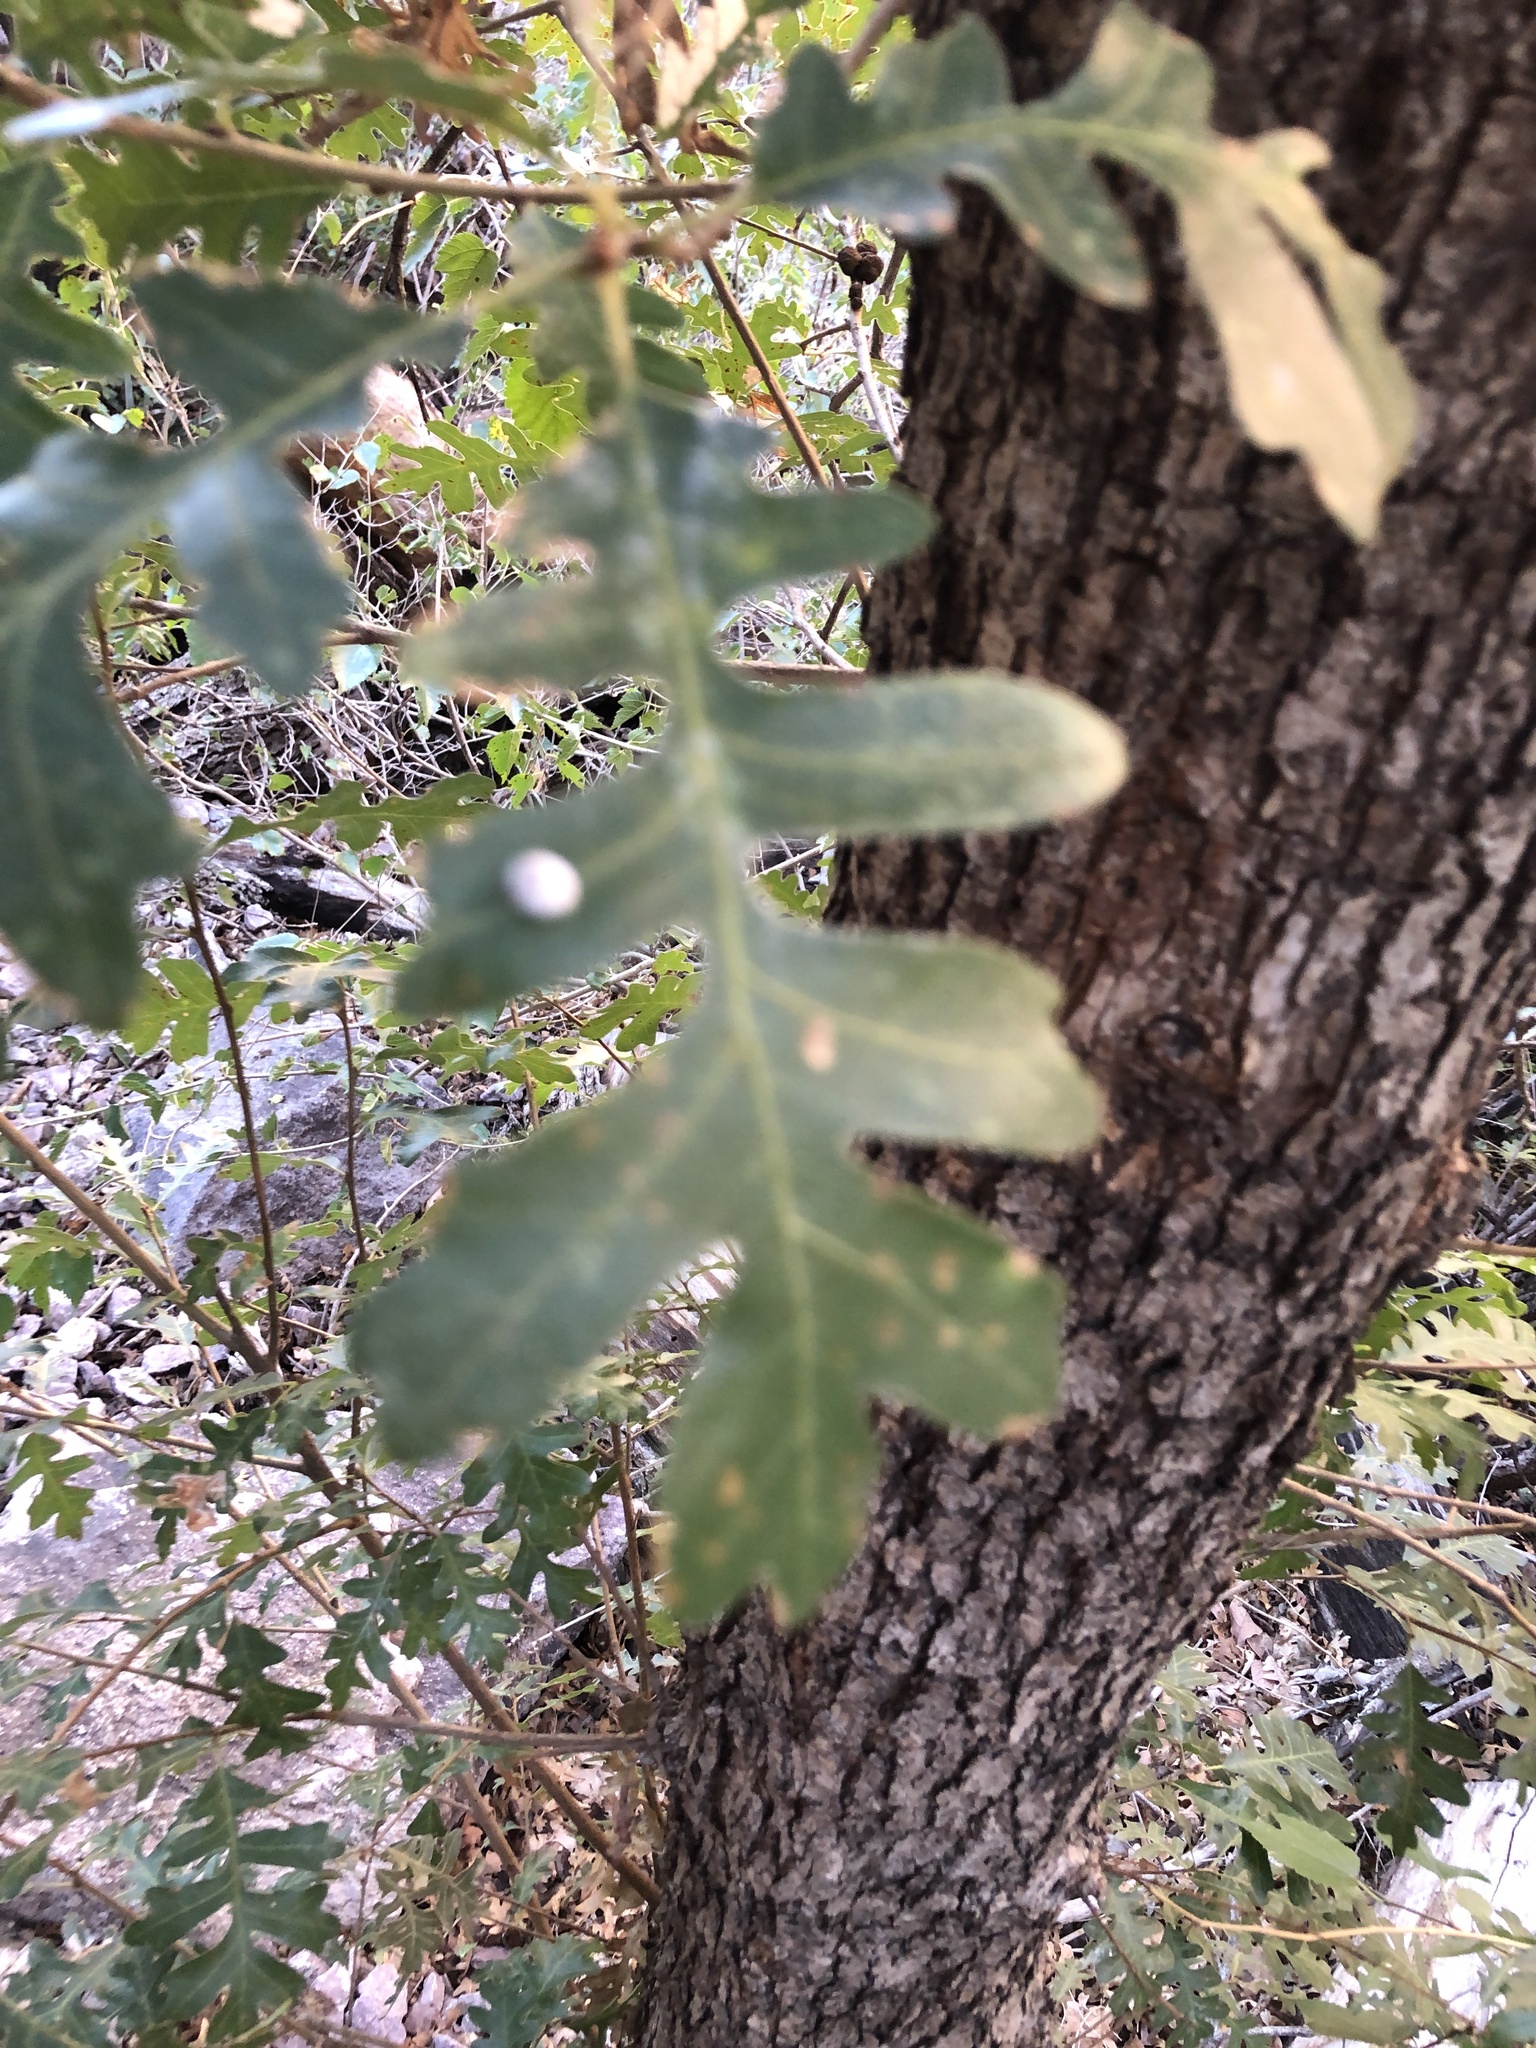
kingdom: Plantae
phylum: Tracheophyta
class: Magnoliopsida
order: Fagales
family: Fagaceae
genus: Quercus
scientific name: Quercus gambelii
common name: Gambel oak
